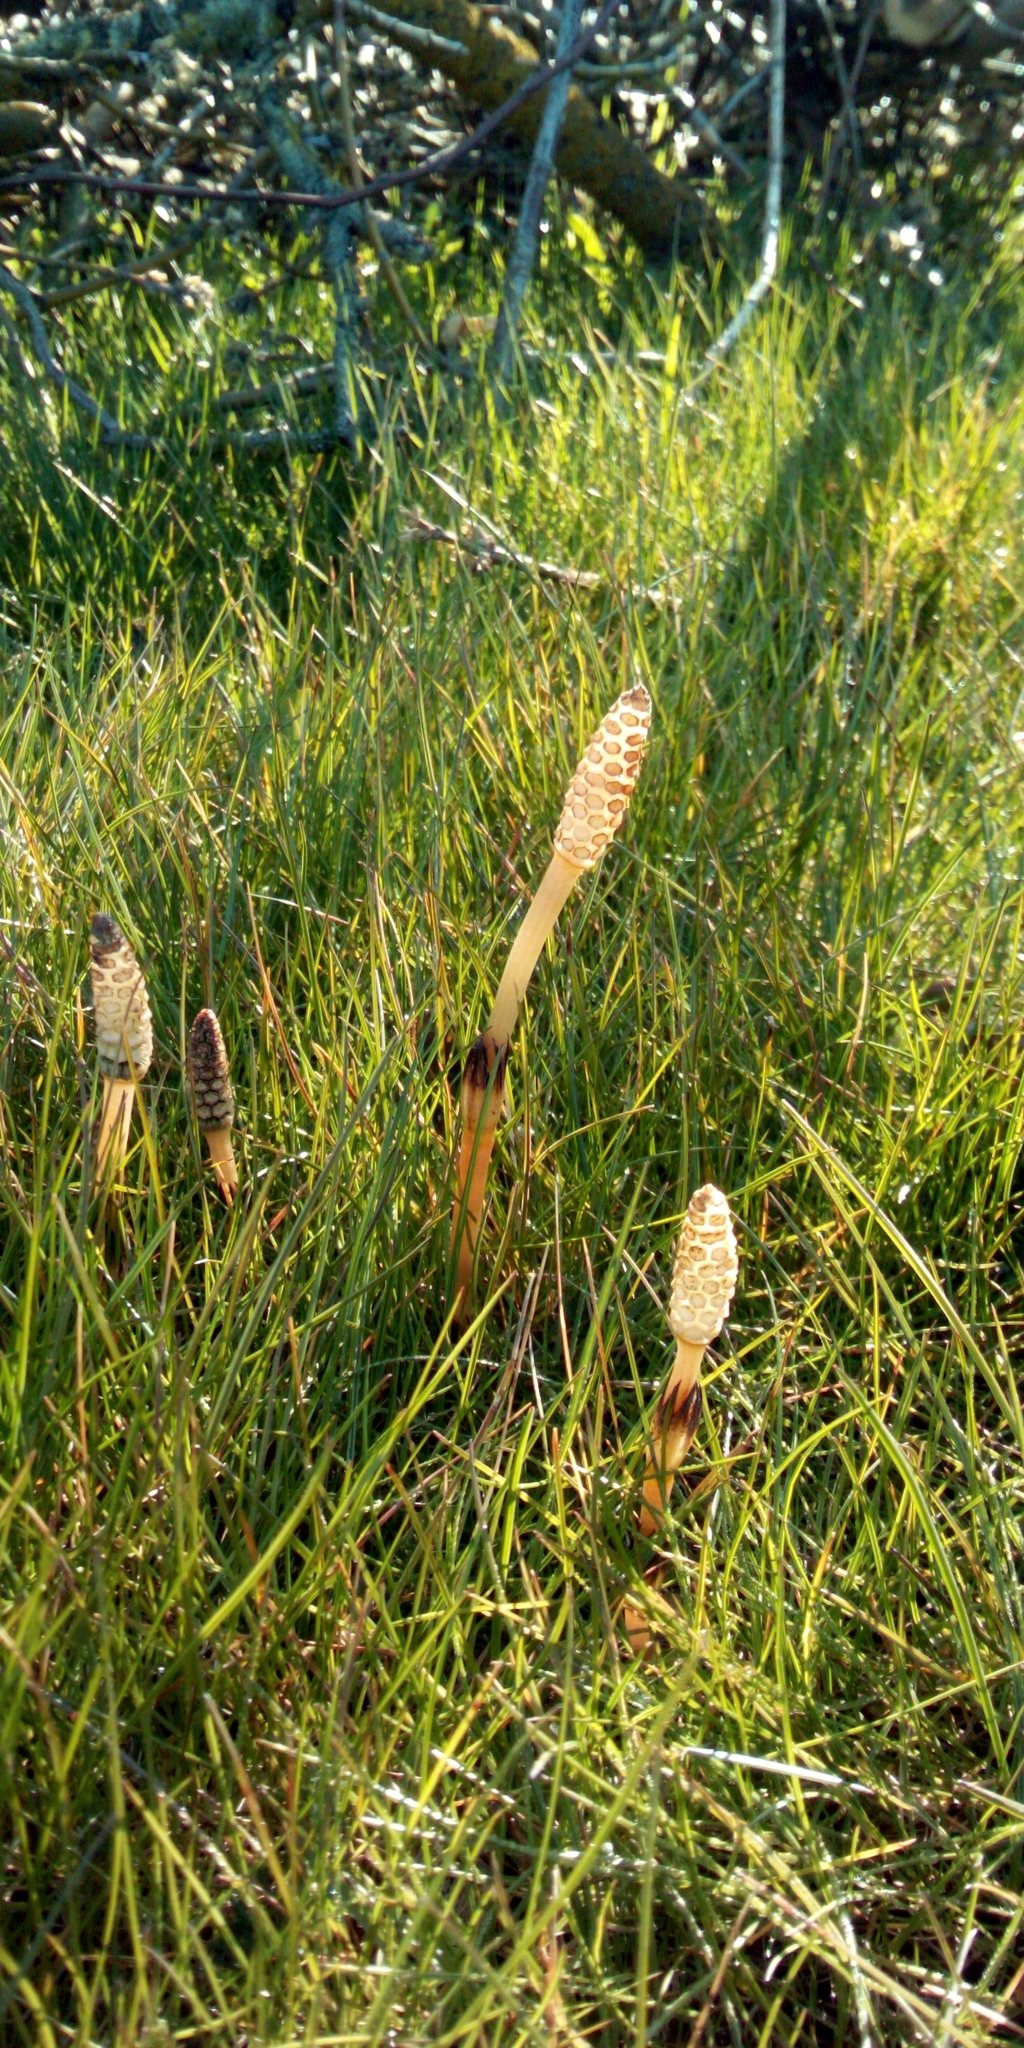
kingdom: Plantae
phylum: Tracheophyta
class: Polypodiopsida
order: Equisetales
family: Equisetaceae
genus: Equisetum
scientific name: Equisetum arvense
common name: Field horsetail
